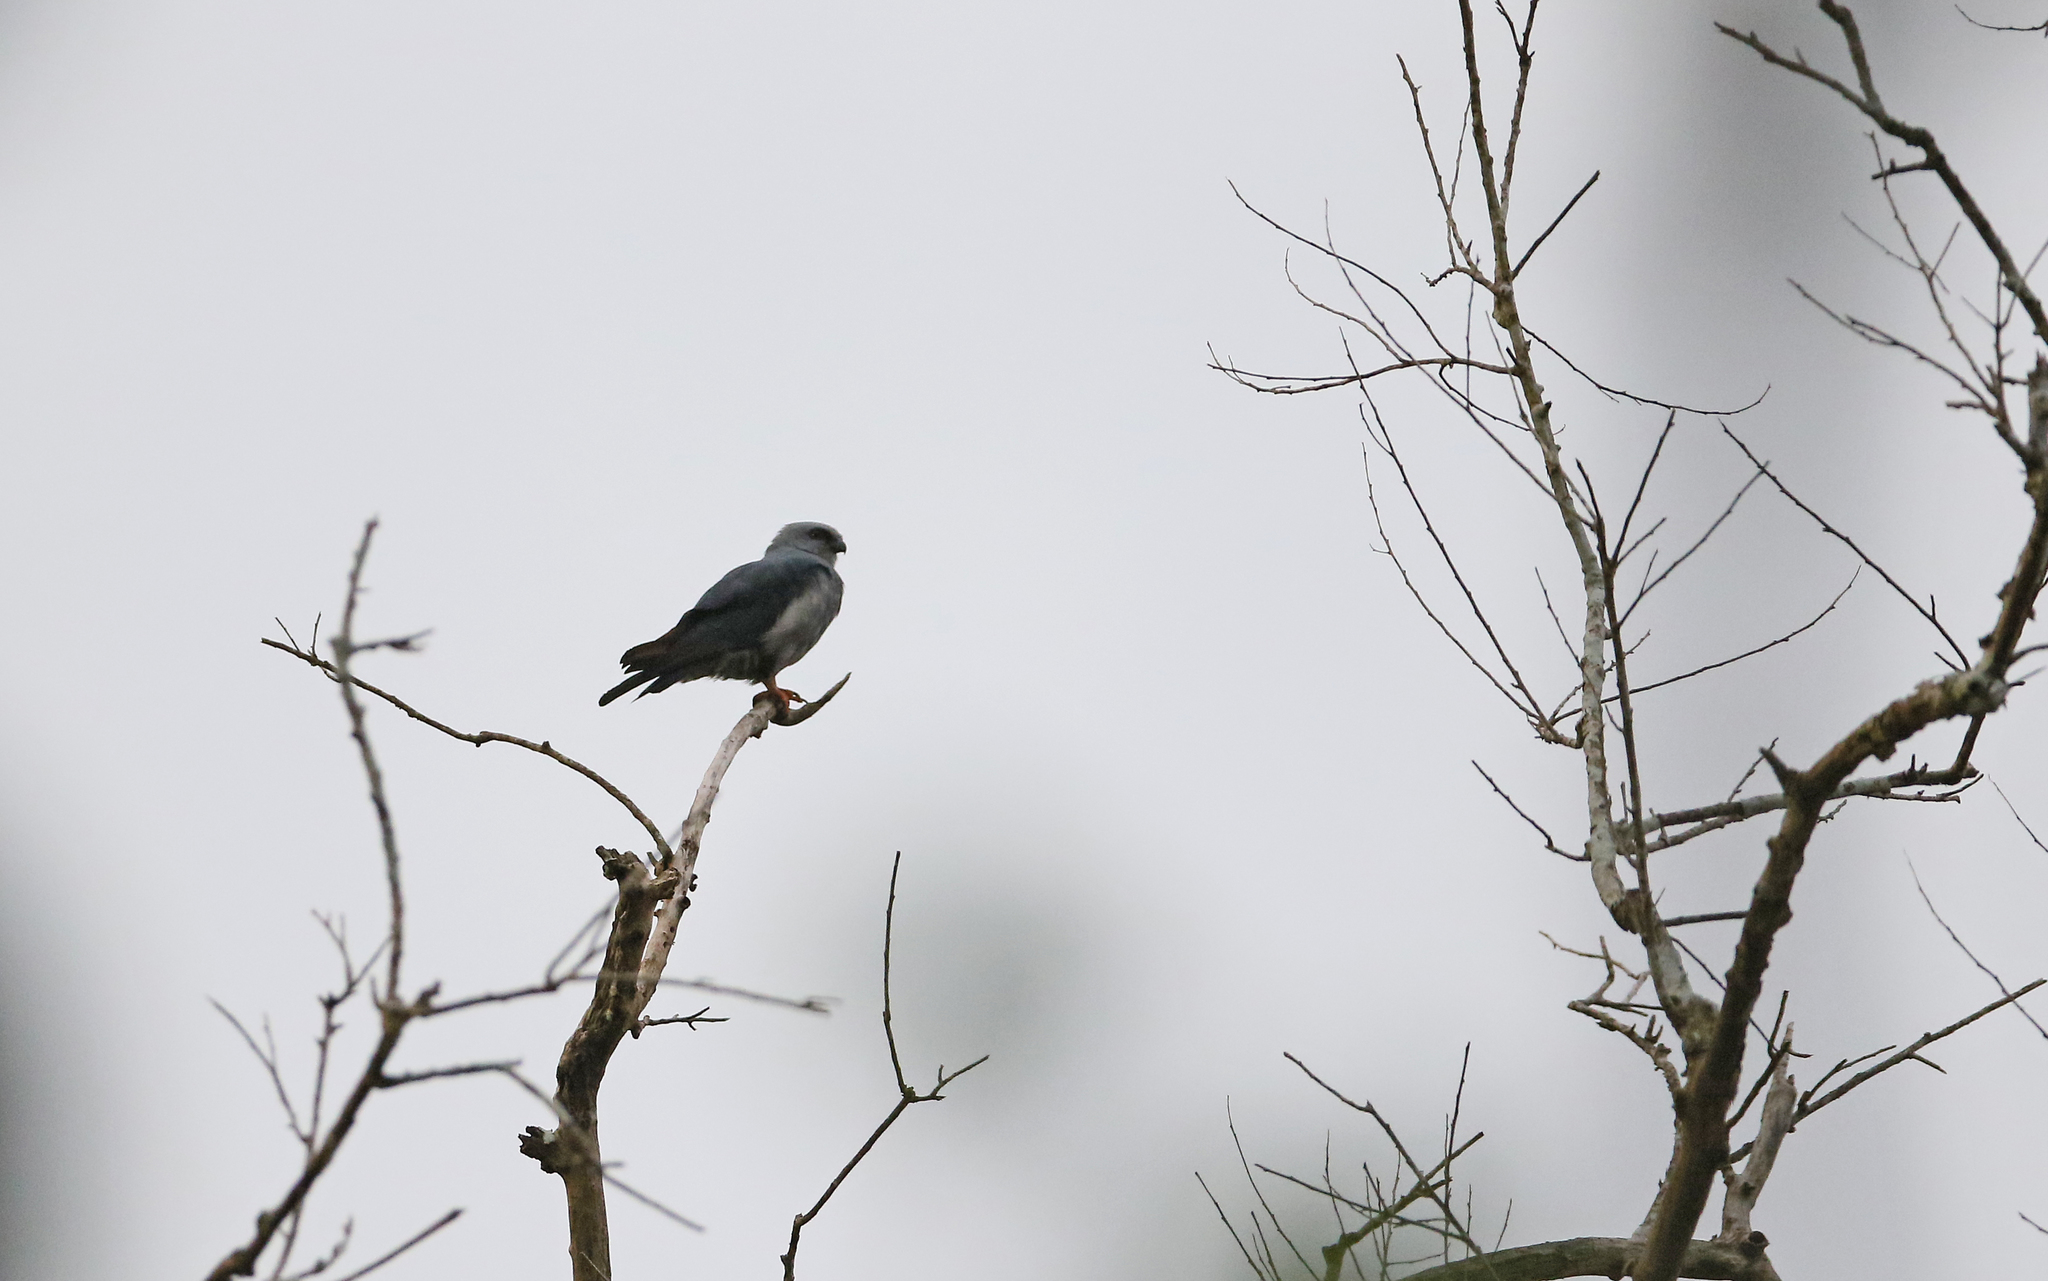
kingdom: Animalia
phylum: Chordata
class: Aves
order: Accipitriformes
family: Accipitridae
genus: Ictinia
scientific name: Ictinia plumbea
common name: Plumbeous kite
